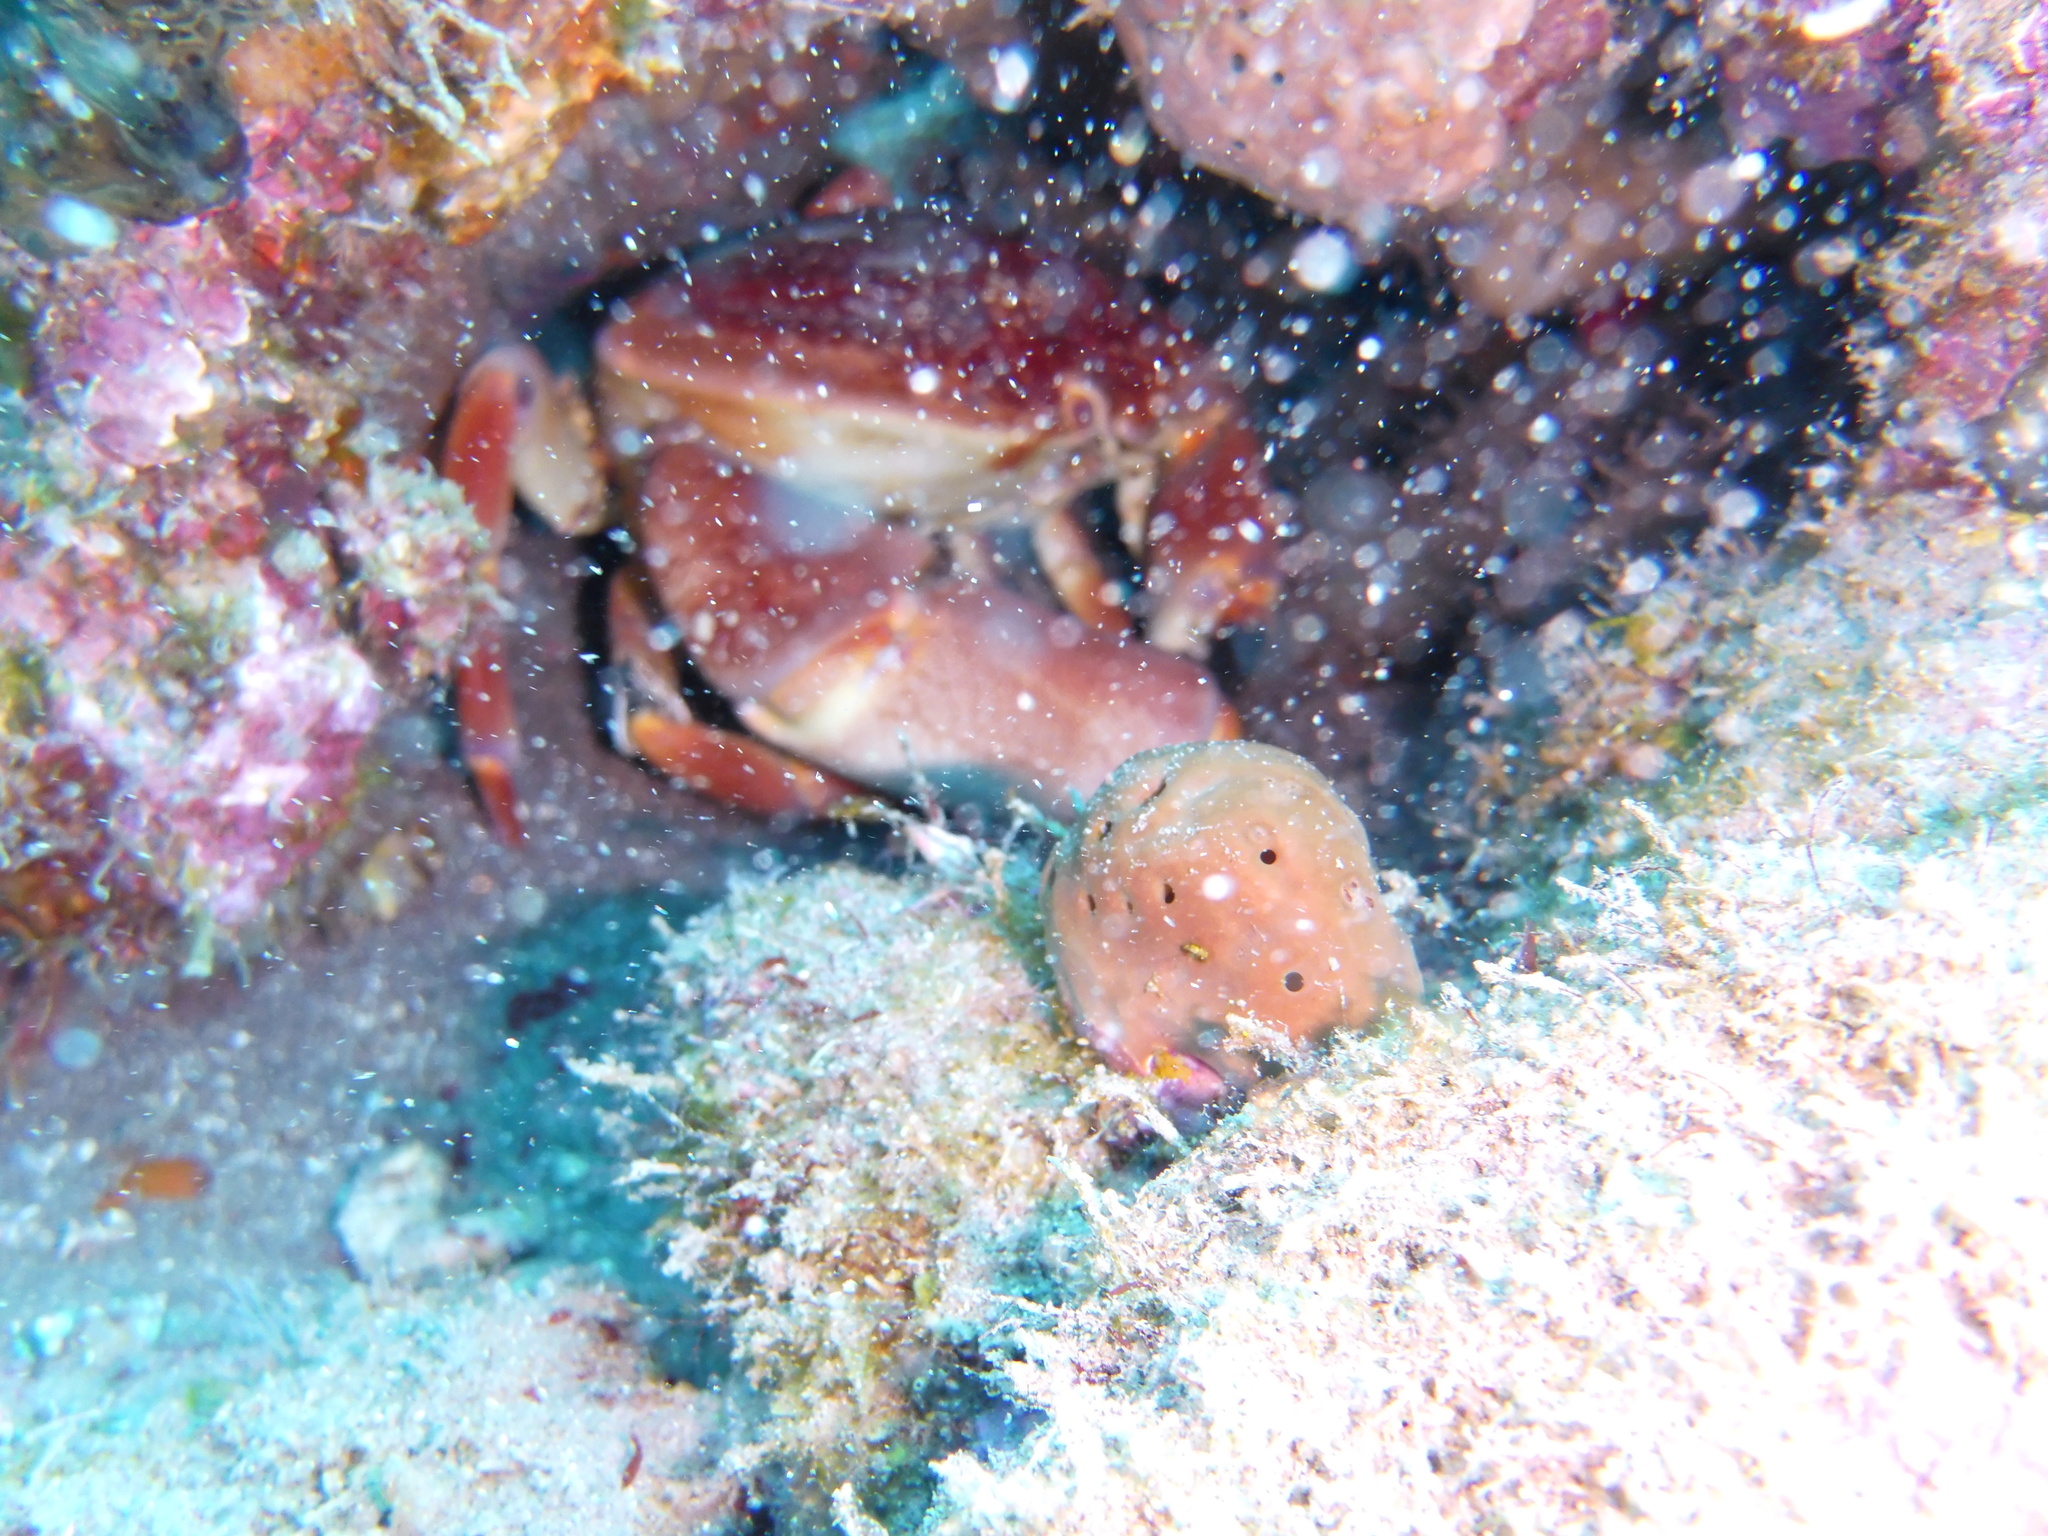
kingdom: Animalia
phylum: Arthropoda
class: Malacostraca
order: Decapoda
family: Carpiliidae
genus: Carpilius
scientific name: Carpilius corallinus
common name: Batwing coral crab
